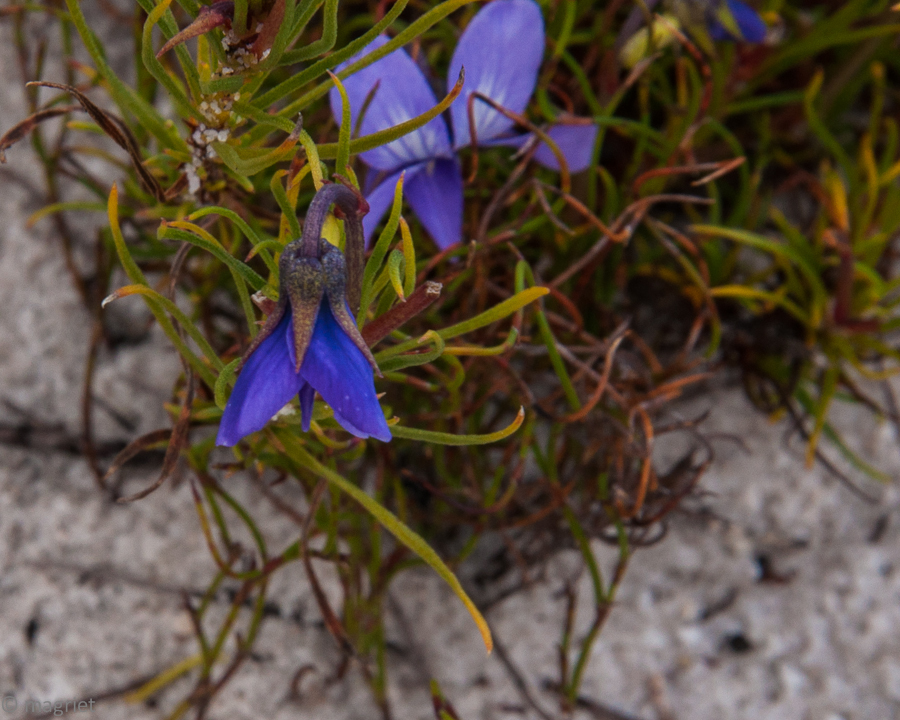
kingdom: Plantae
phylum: Tracheophyta
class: Magnoliopsida
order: Malpighiales
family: Violaceae
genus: Viola
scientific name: Viola decumbens
